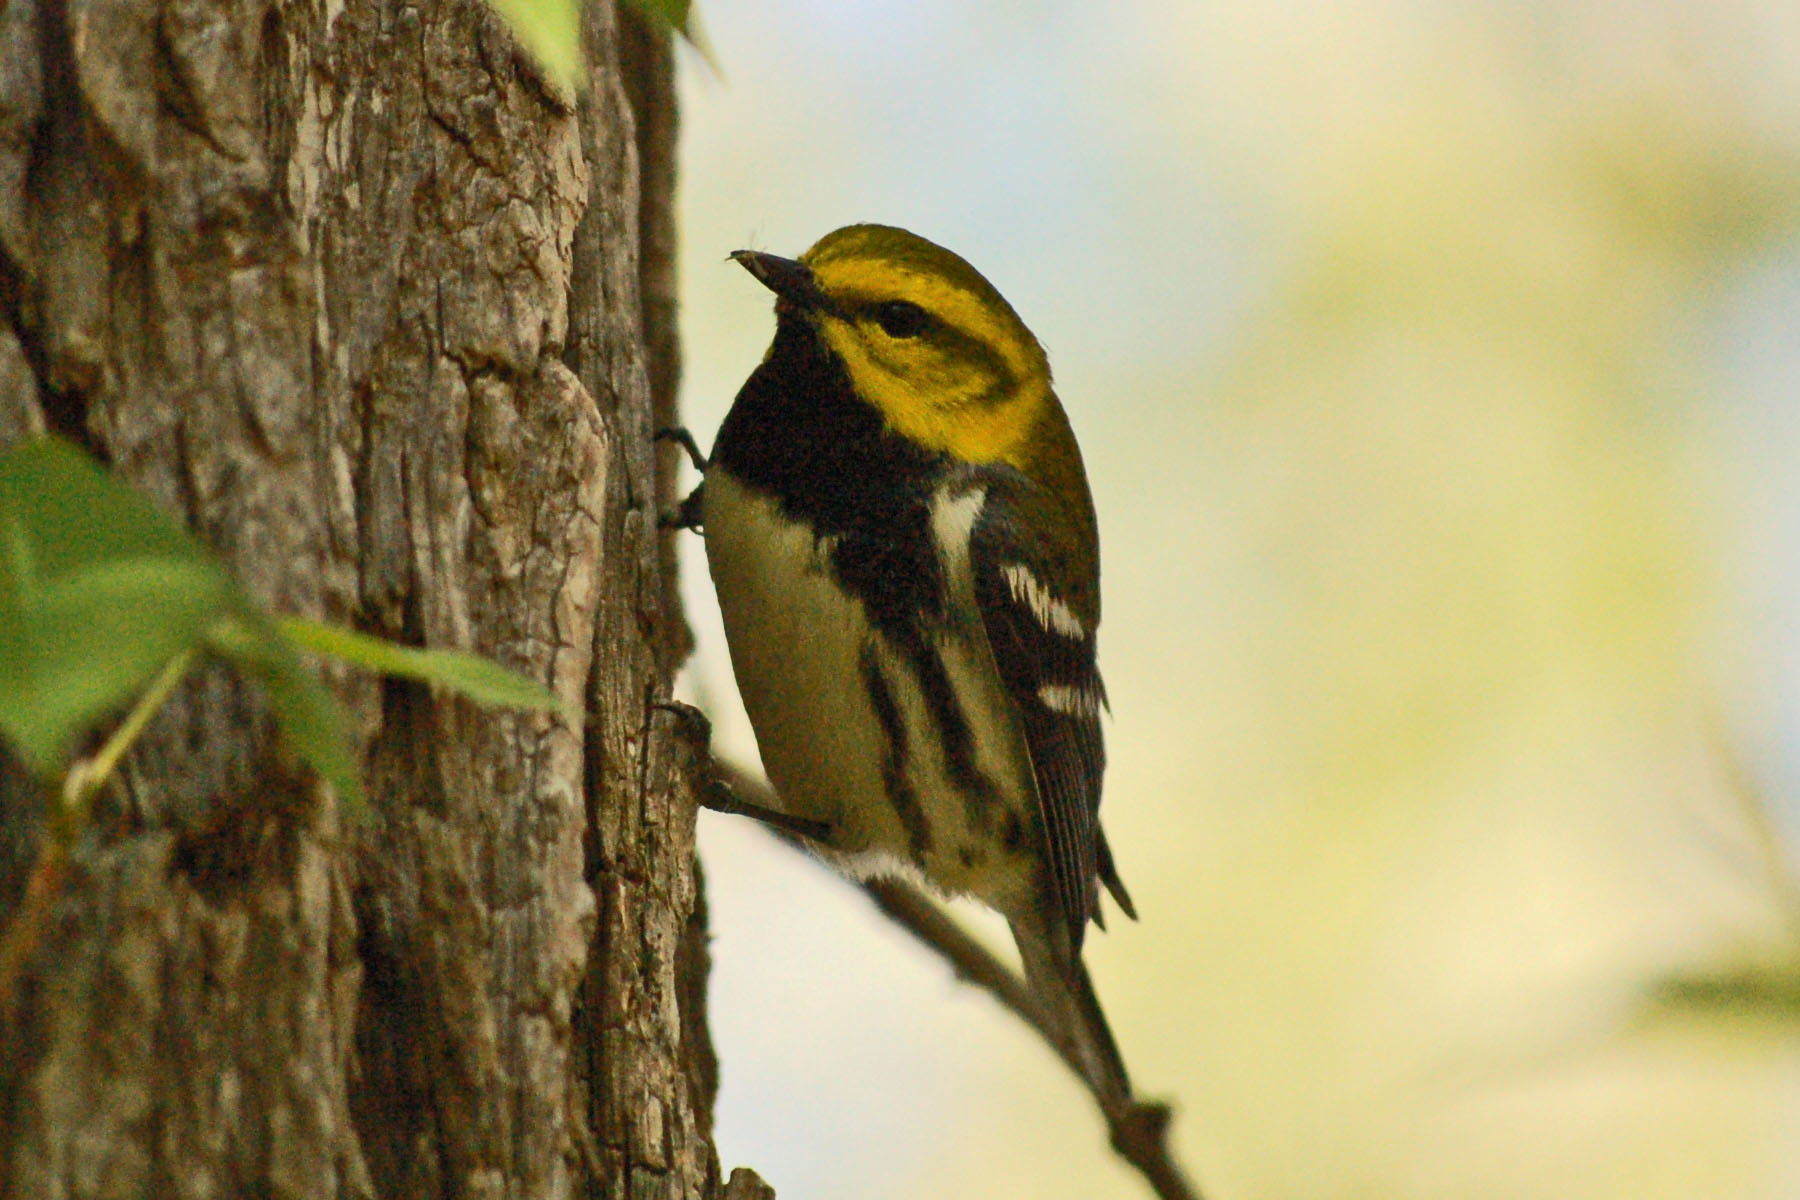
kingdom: Animalia
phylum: Chordata
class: Aves
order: Passeriformes
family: Parulidae
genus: Setophaga
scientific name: Setophaga virens
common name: Black-throated green warbler
